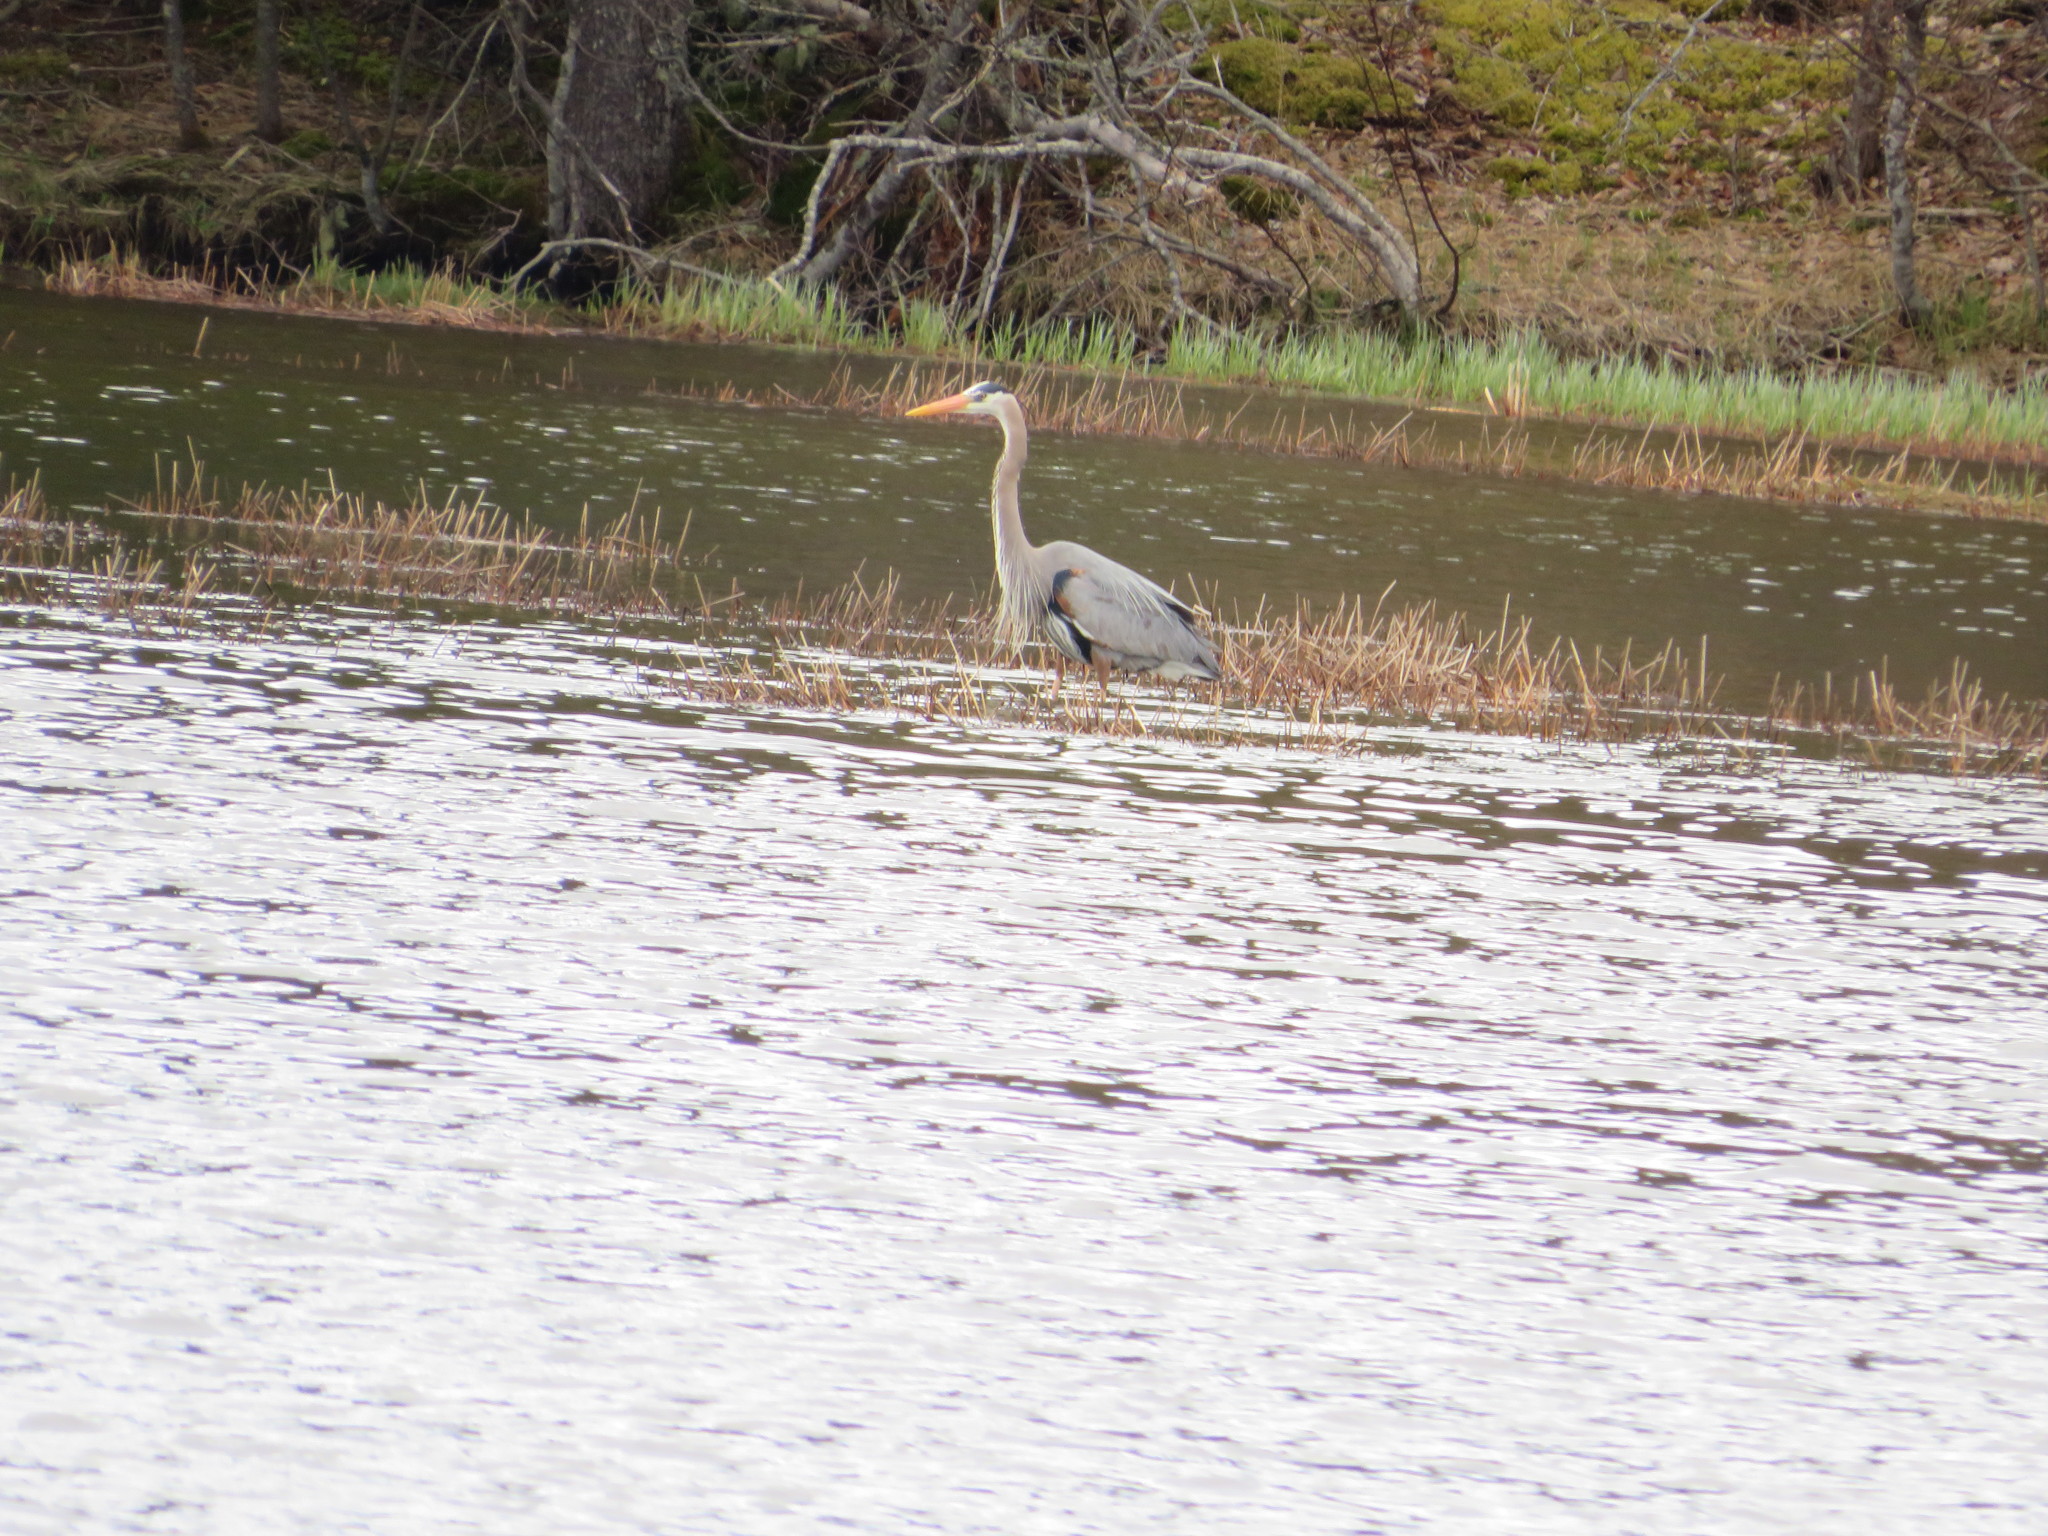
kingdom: Animalia
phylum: Chordata
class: Aves
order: Pelecaniformes
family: Ardeidae
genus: Ardea
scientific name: Ardea herodias
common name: Great blue heron
